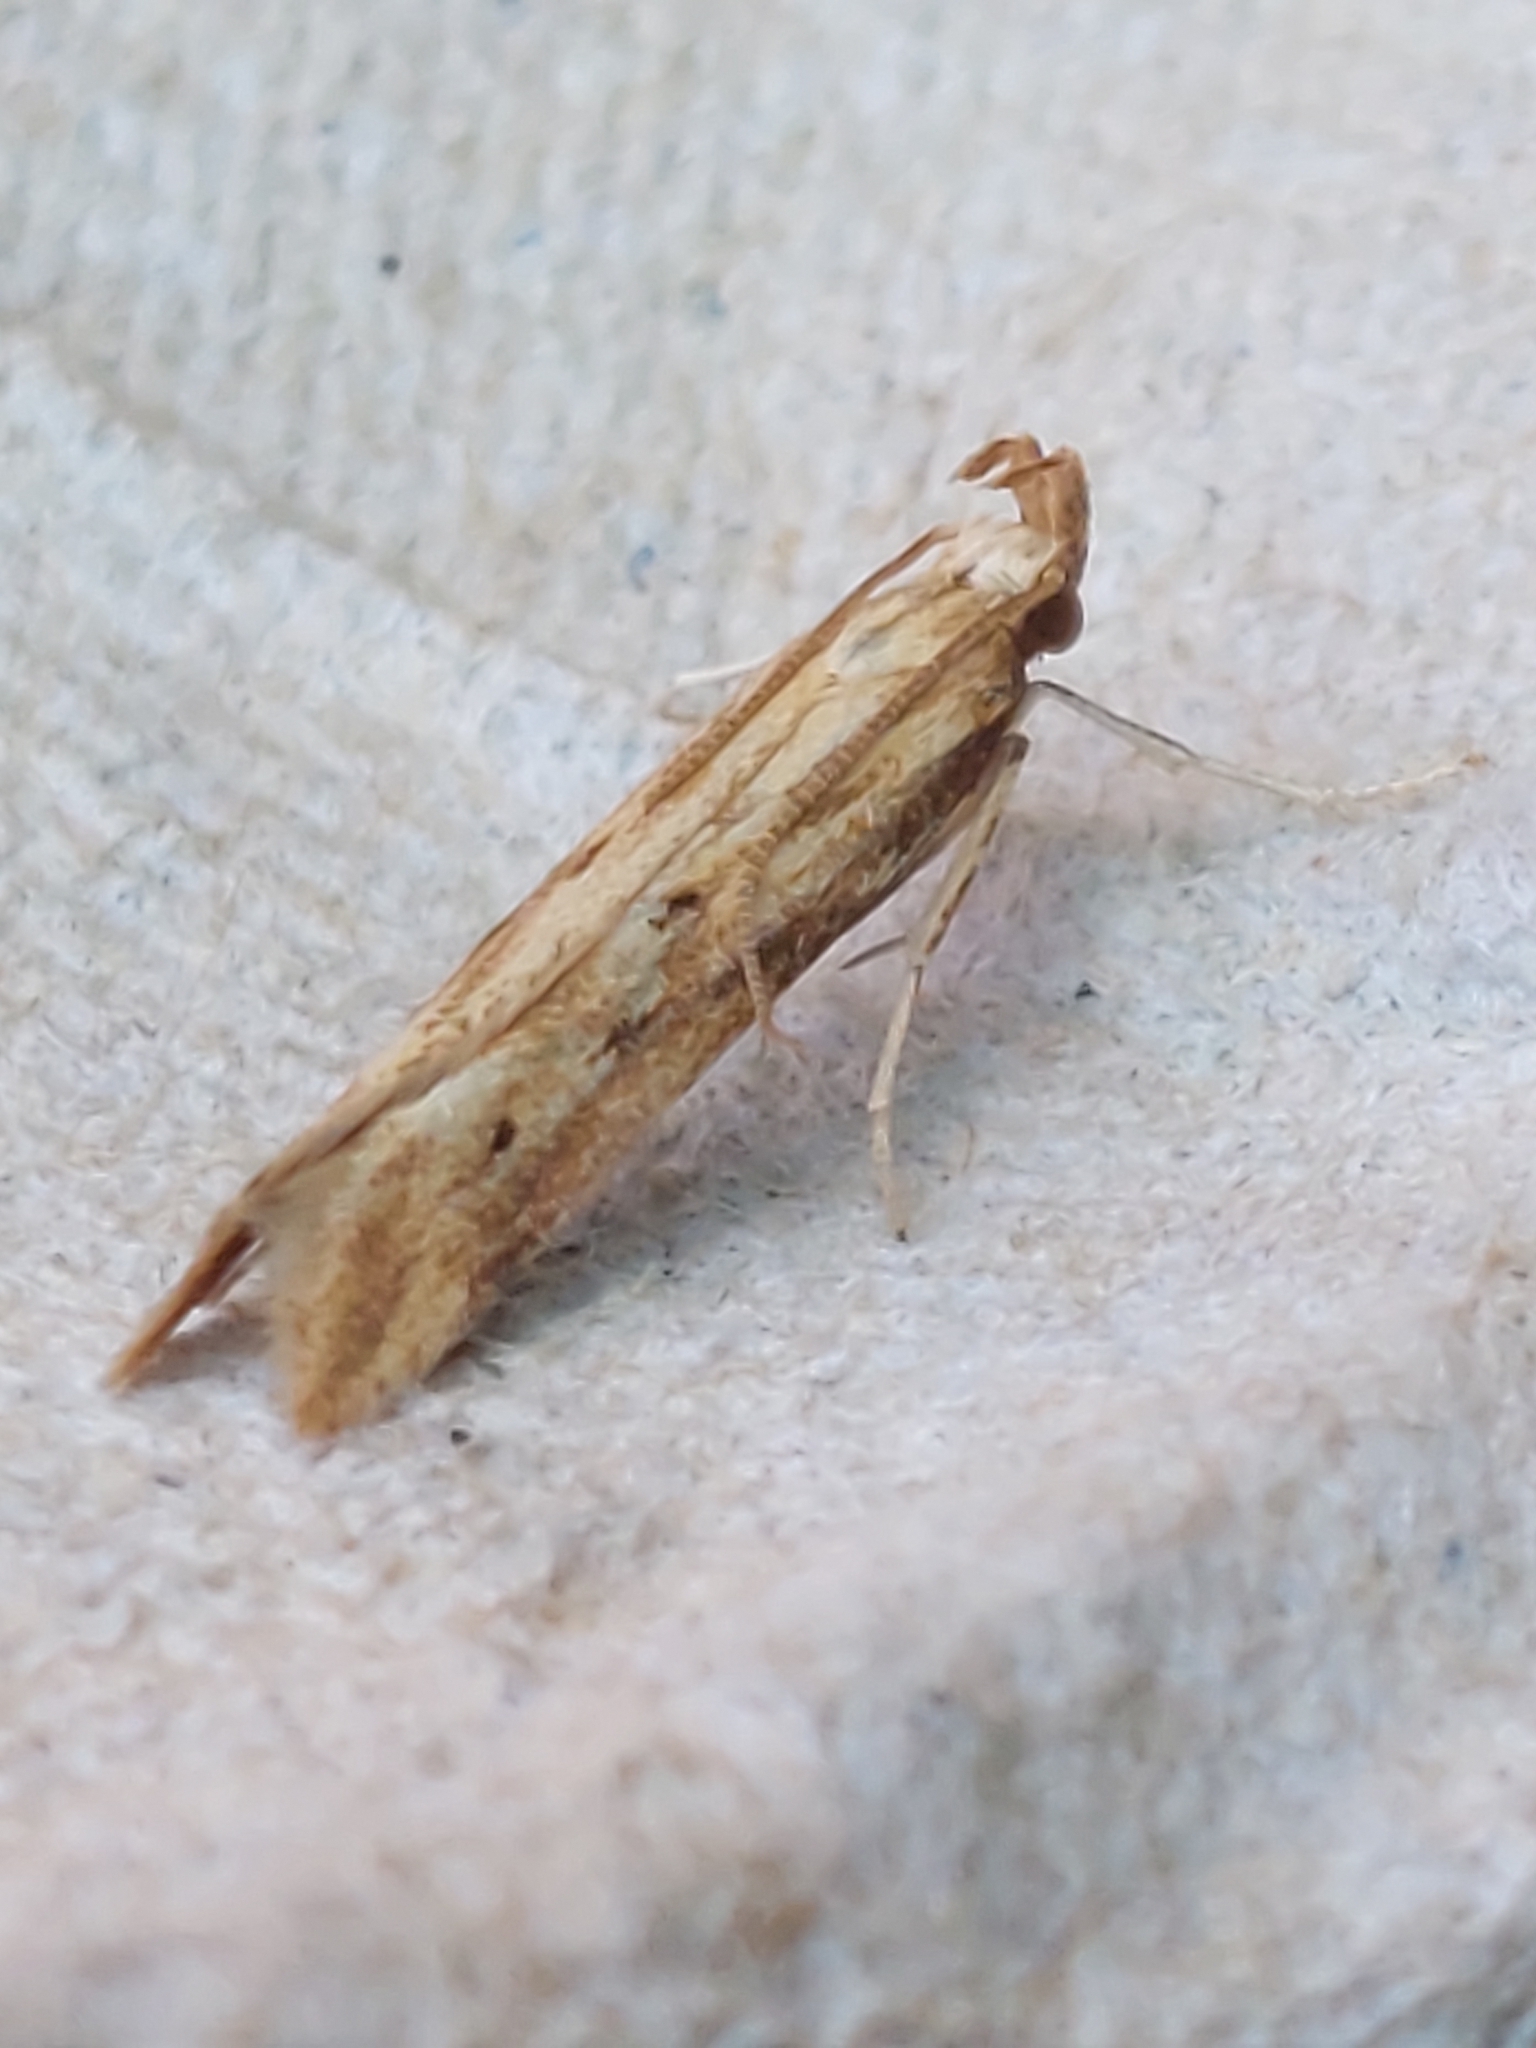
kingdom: Animalia
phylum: Arthropoda
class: Insecta
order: Lepidoptera
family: Gelechiidae
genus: Metzneria
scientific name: Metzneria lappella
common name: Burdock neb
